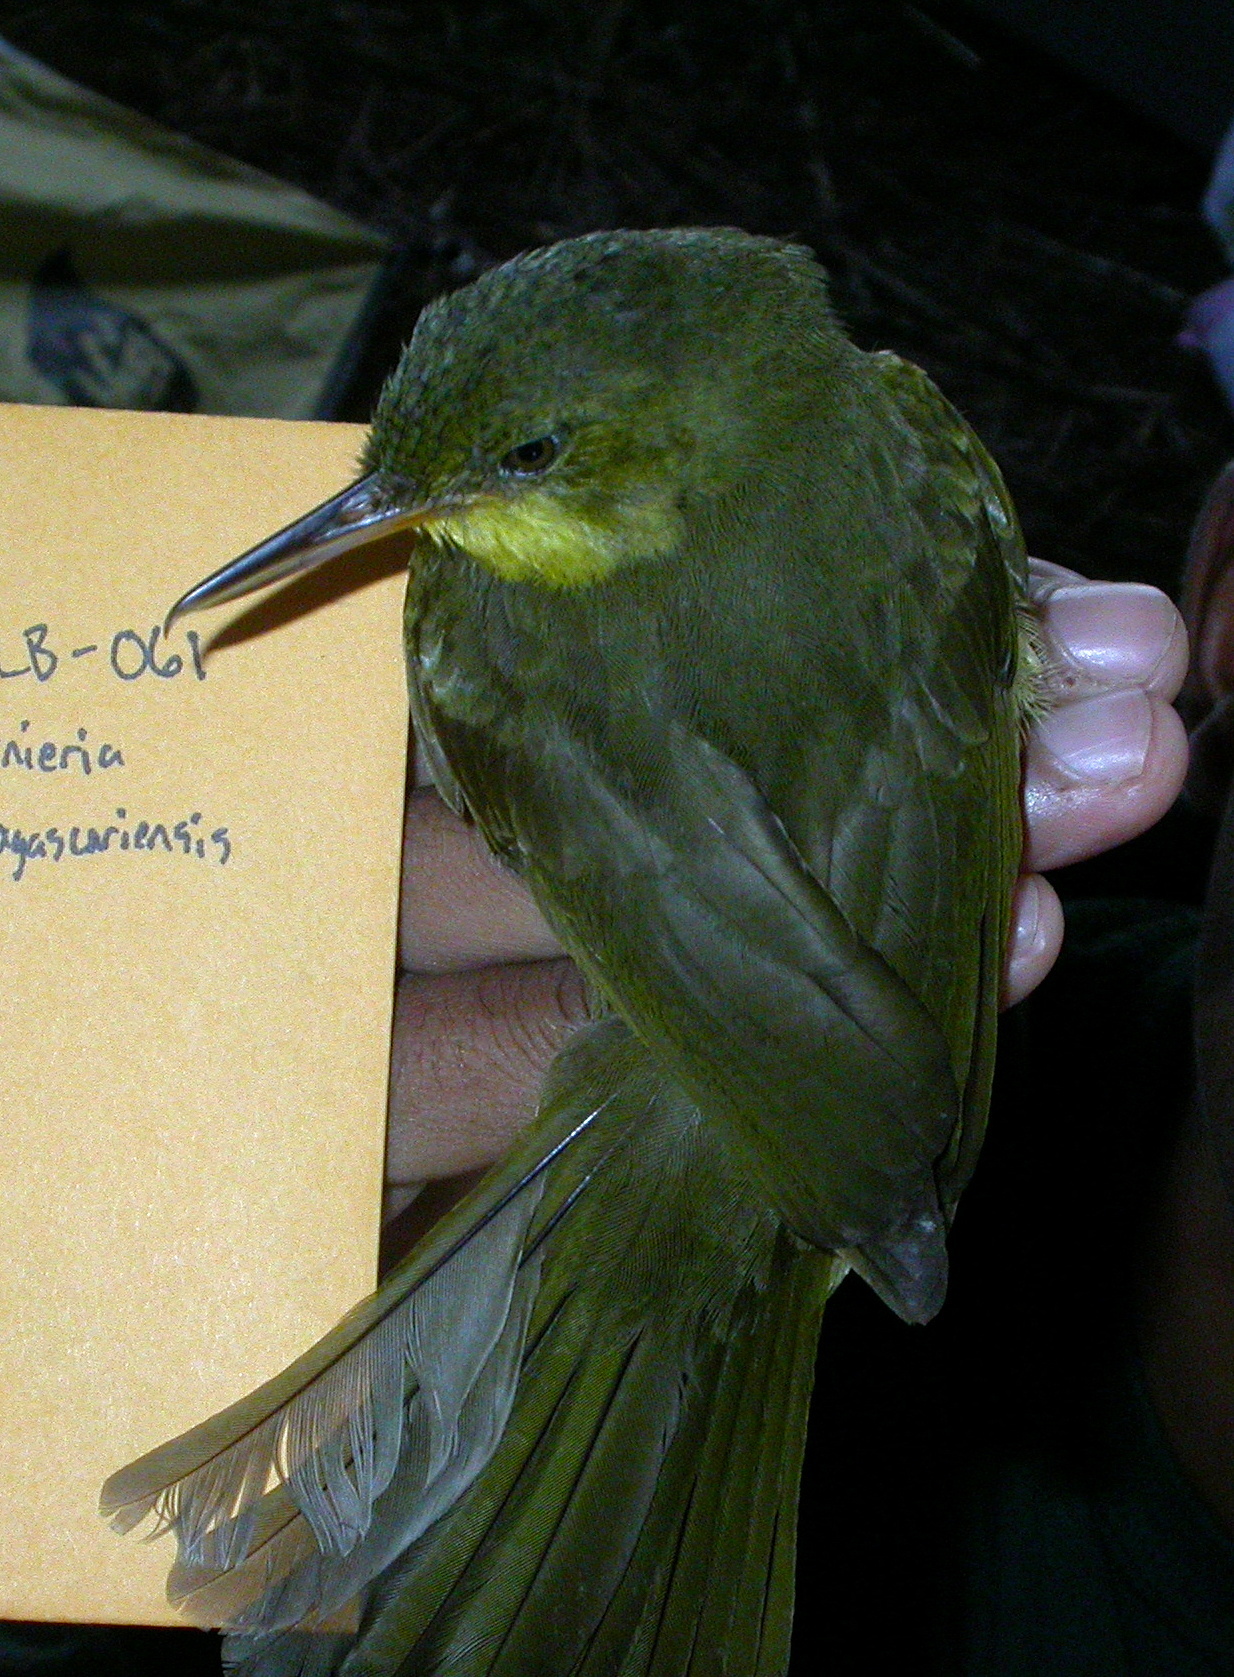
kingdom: Animalia
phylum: Chordata
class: Aves
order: Passeriformes
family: Bernieridae
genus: Bernieria
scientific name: Bernieria madagascariensis
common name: Long-billed bernieria
